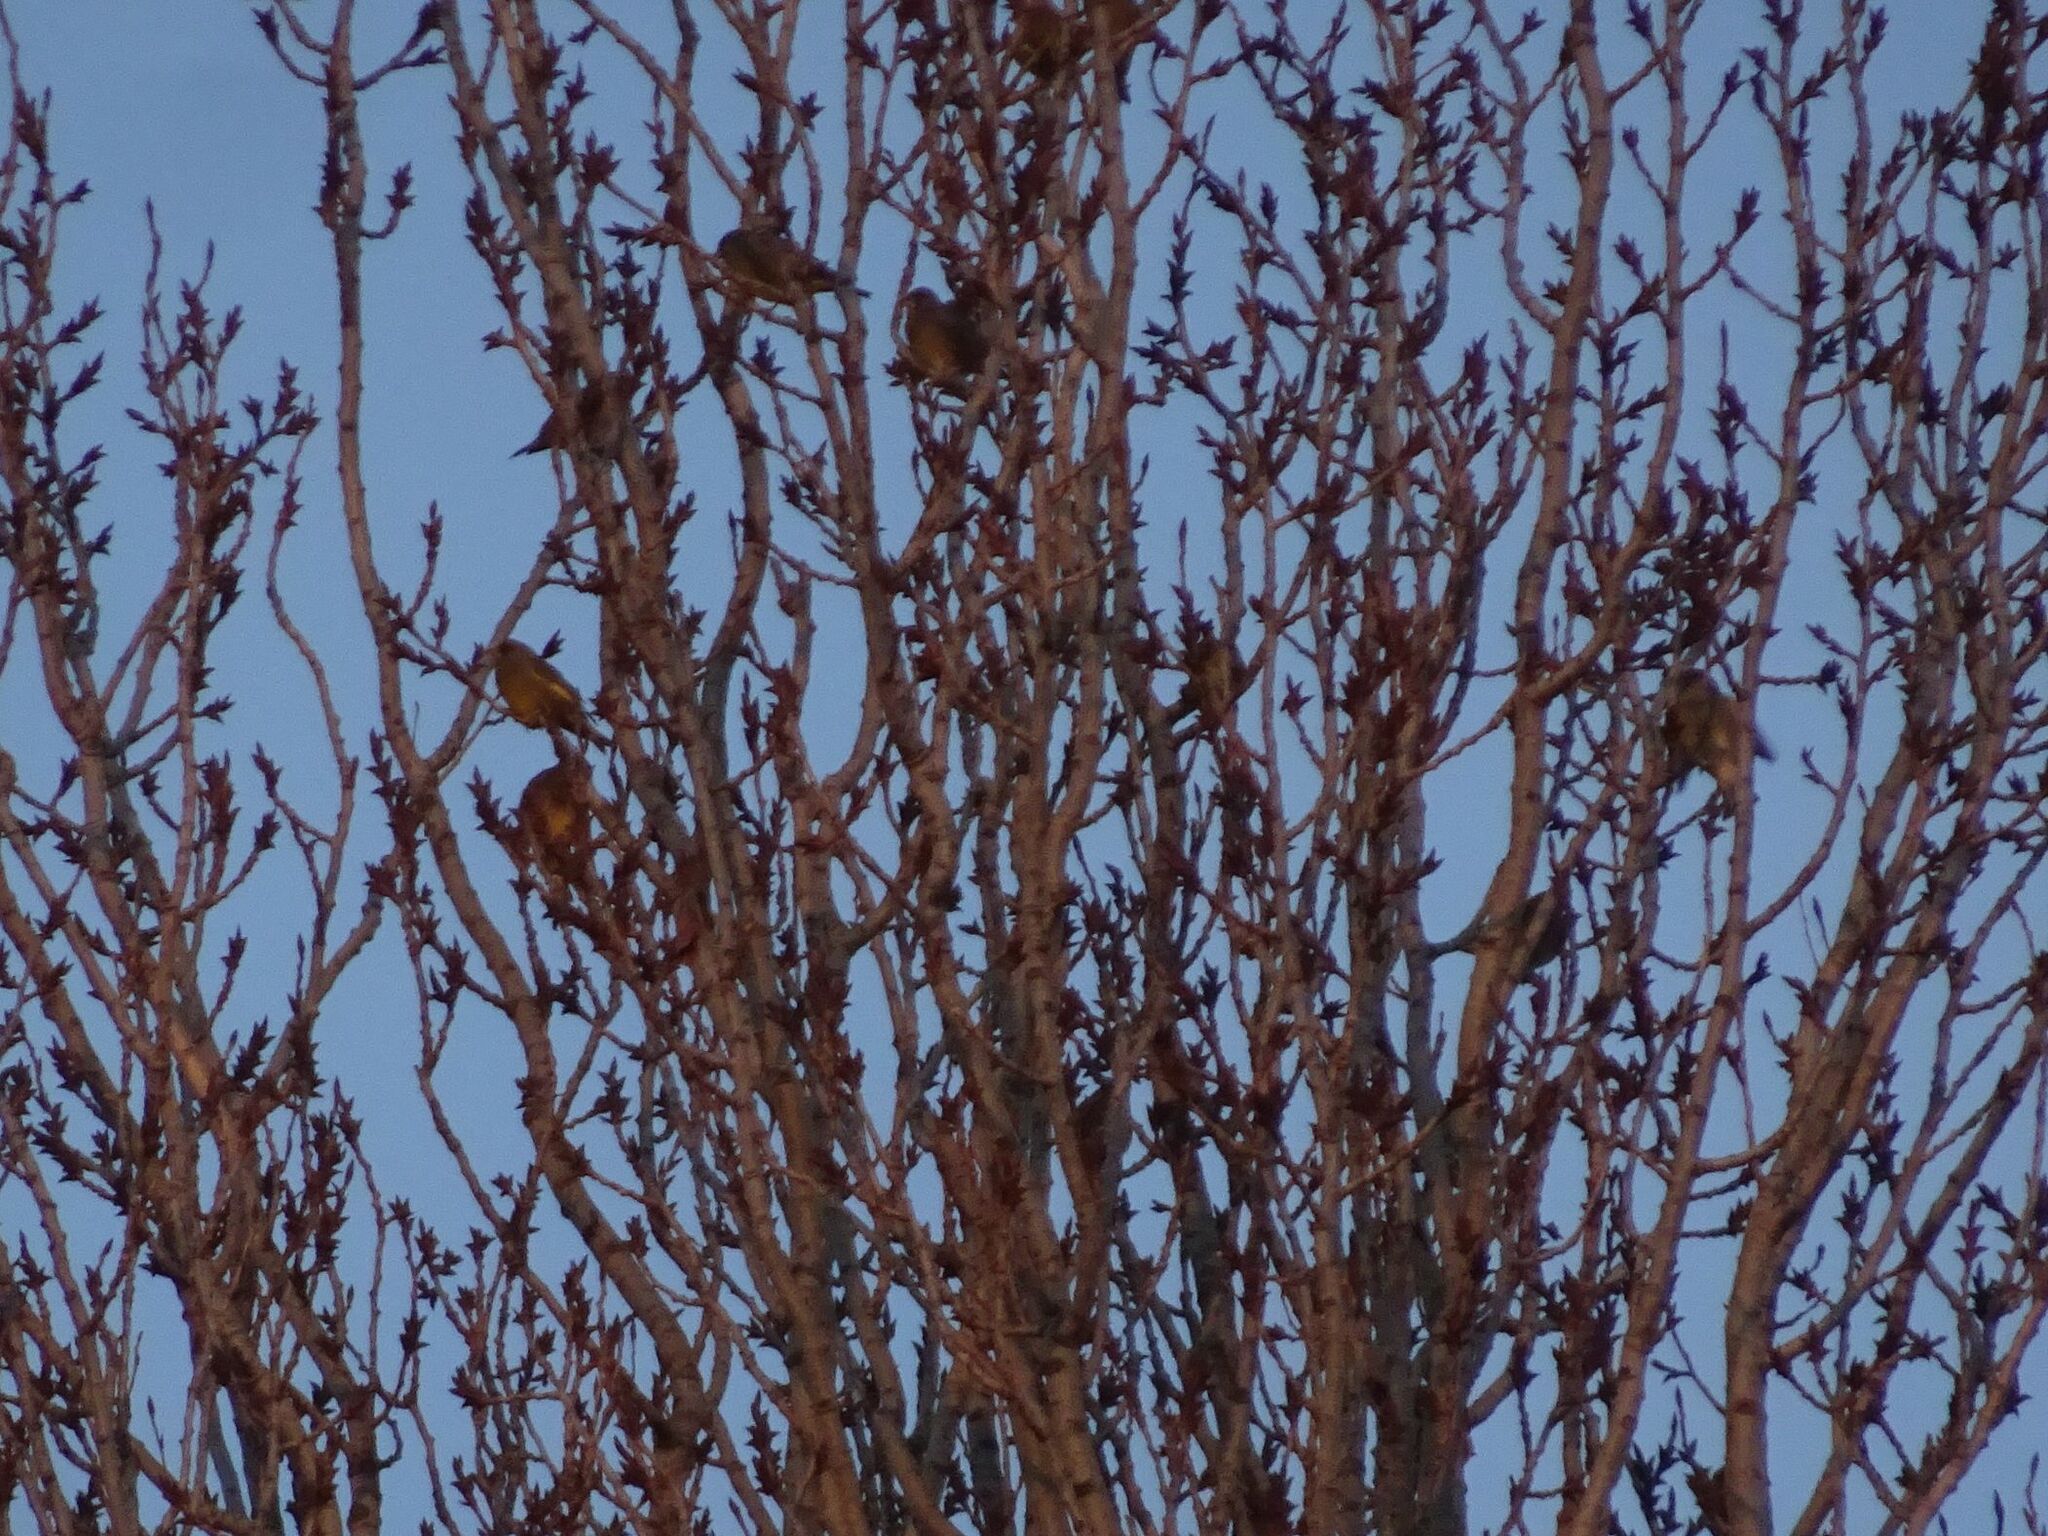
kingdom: Plantae
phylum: Tracheophyta
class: Liliopsida
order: Poales
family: Poaceae
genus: Chloris
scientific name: Chloris chloris
